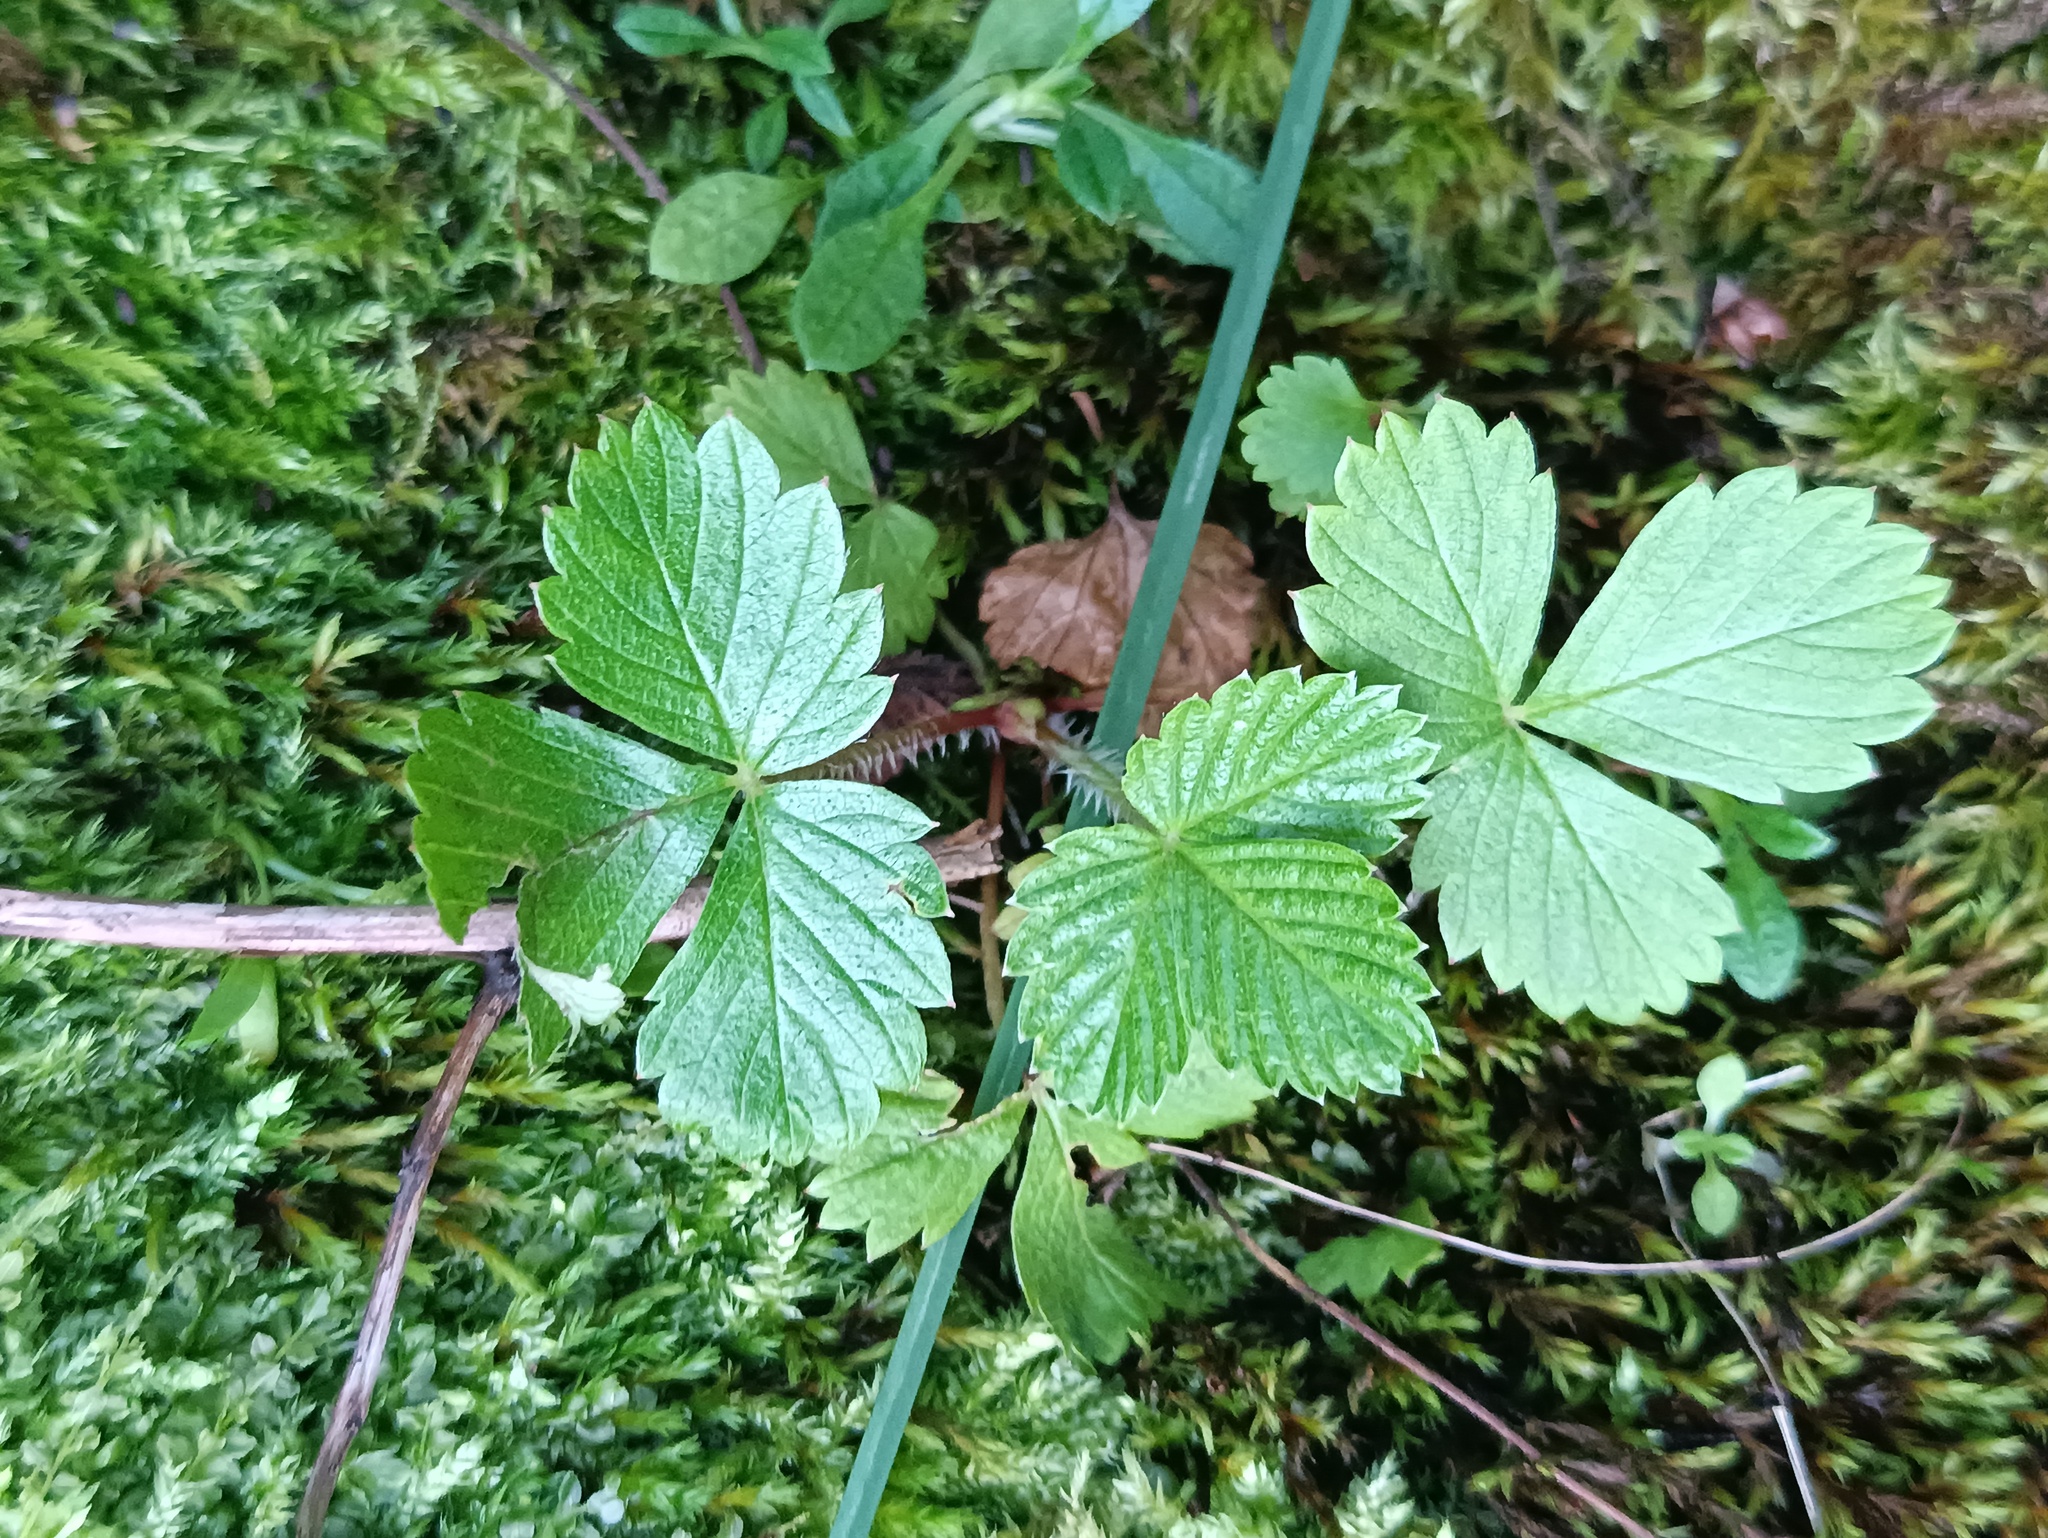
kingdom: Plantae
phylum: Tracheophyta
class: Magnoliopsida
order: Rosales
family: Rosaceae
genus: Fragaria
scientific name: Fragaria vesca
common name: Wild strawberry
